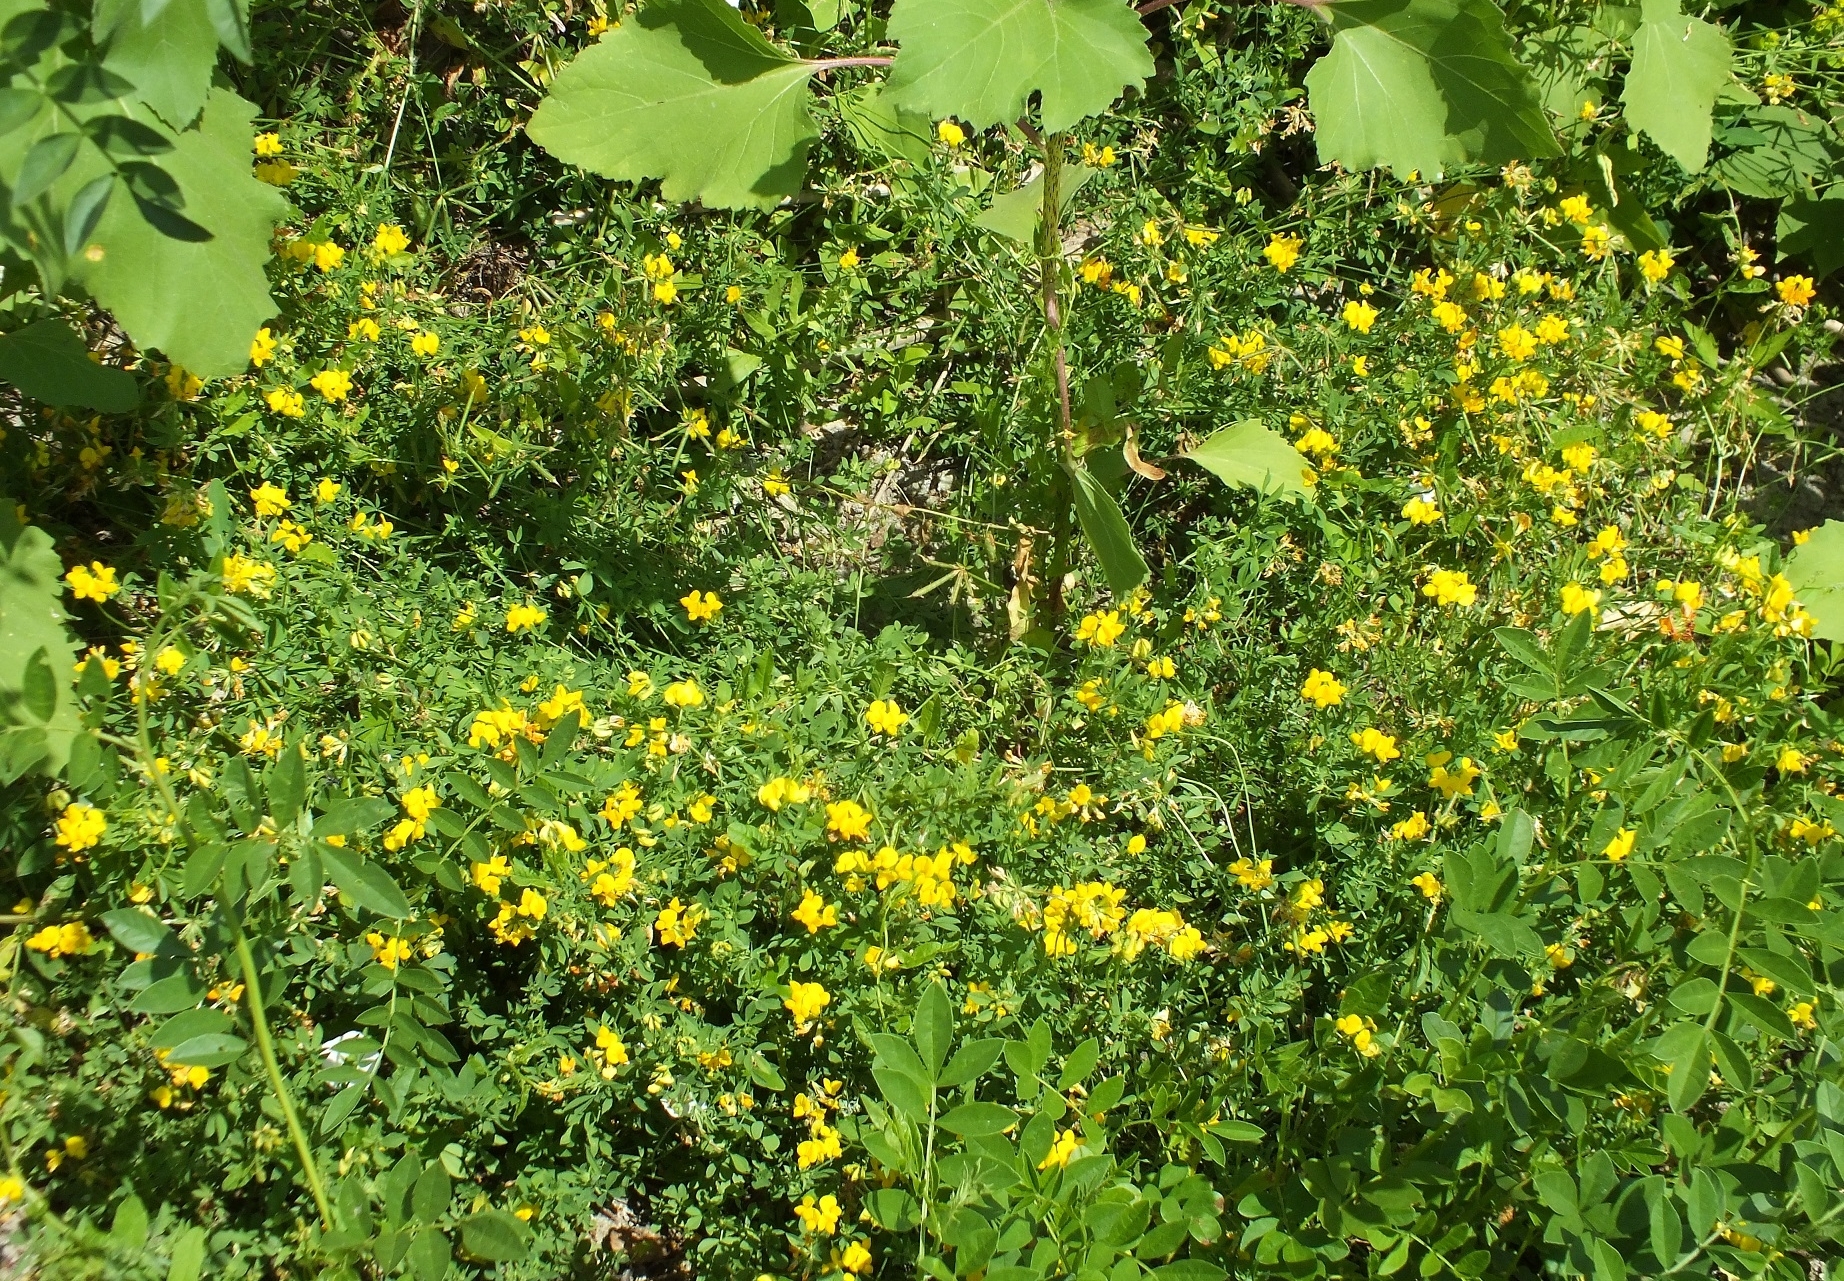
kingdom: Plantae
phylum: Tracheophyta
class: Magnoliopsida
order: Fabales
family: Fabaceae
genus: Lotus
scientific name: Lotus corniculatus
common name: Common bird's-foot-trefoil
